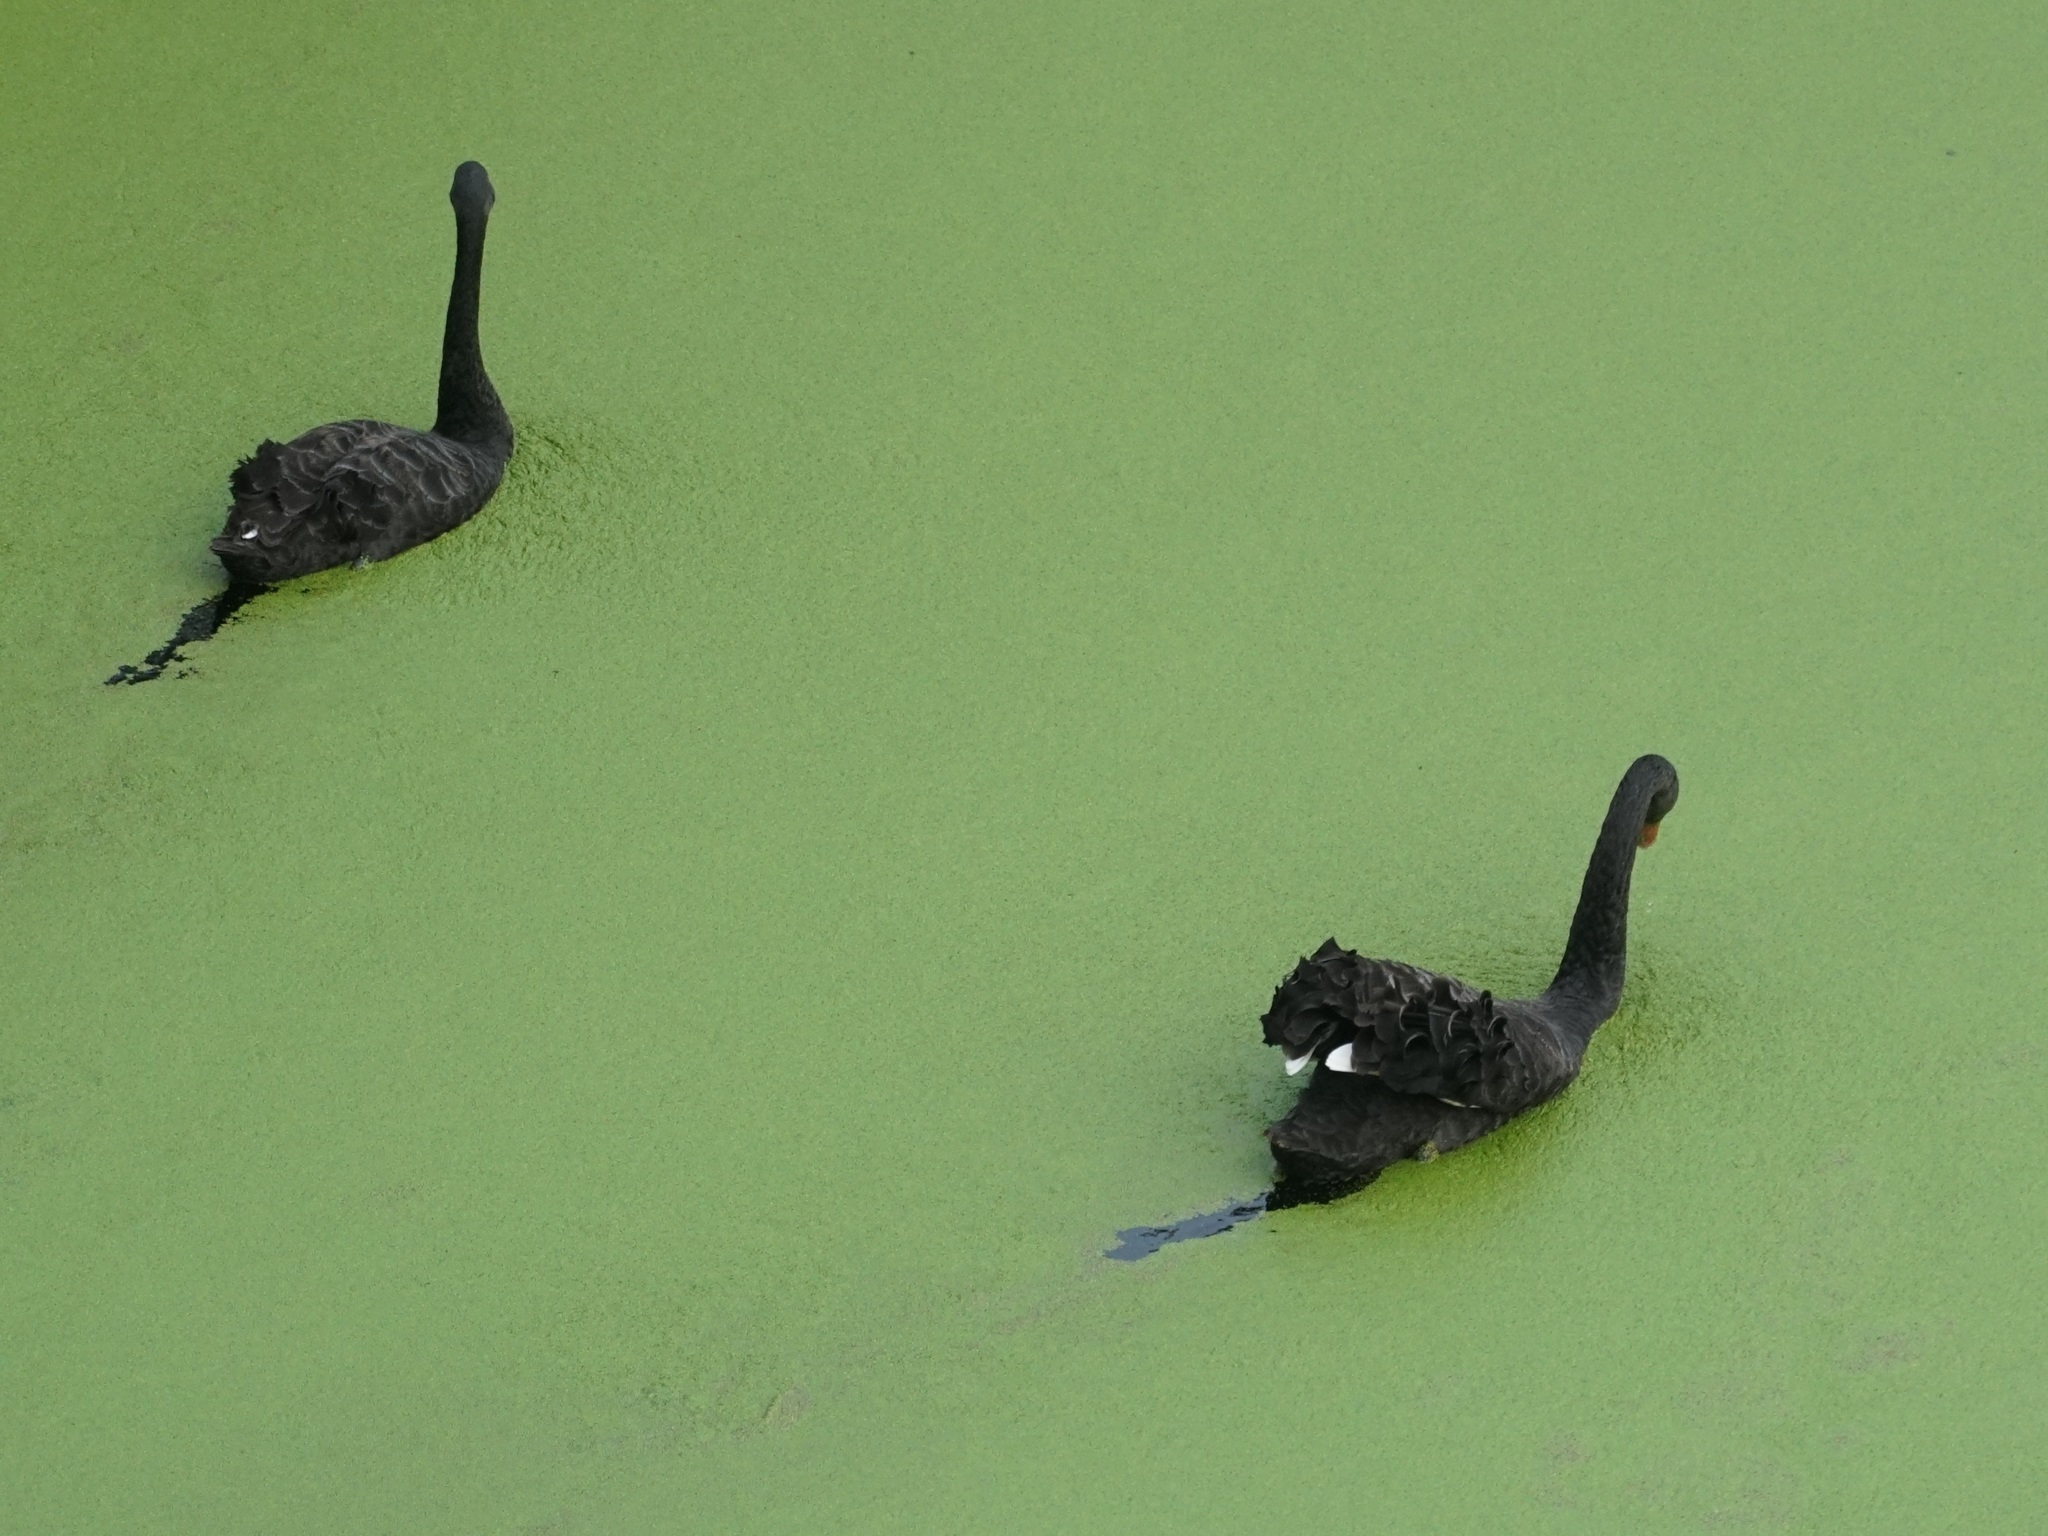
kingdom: Animalia
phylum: Chordata
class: Aves
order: Anseriformes
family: Anatidae
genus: Cygnus
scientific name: Cygnus atratus
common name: Black swan
